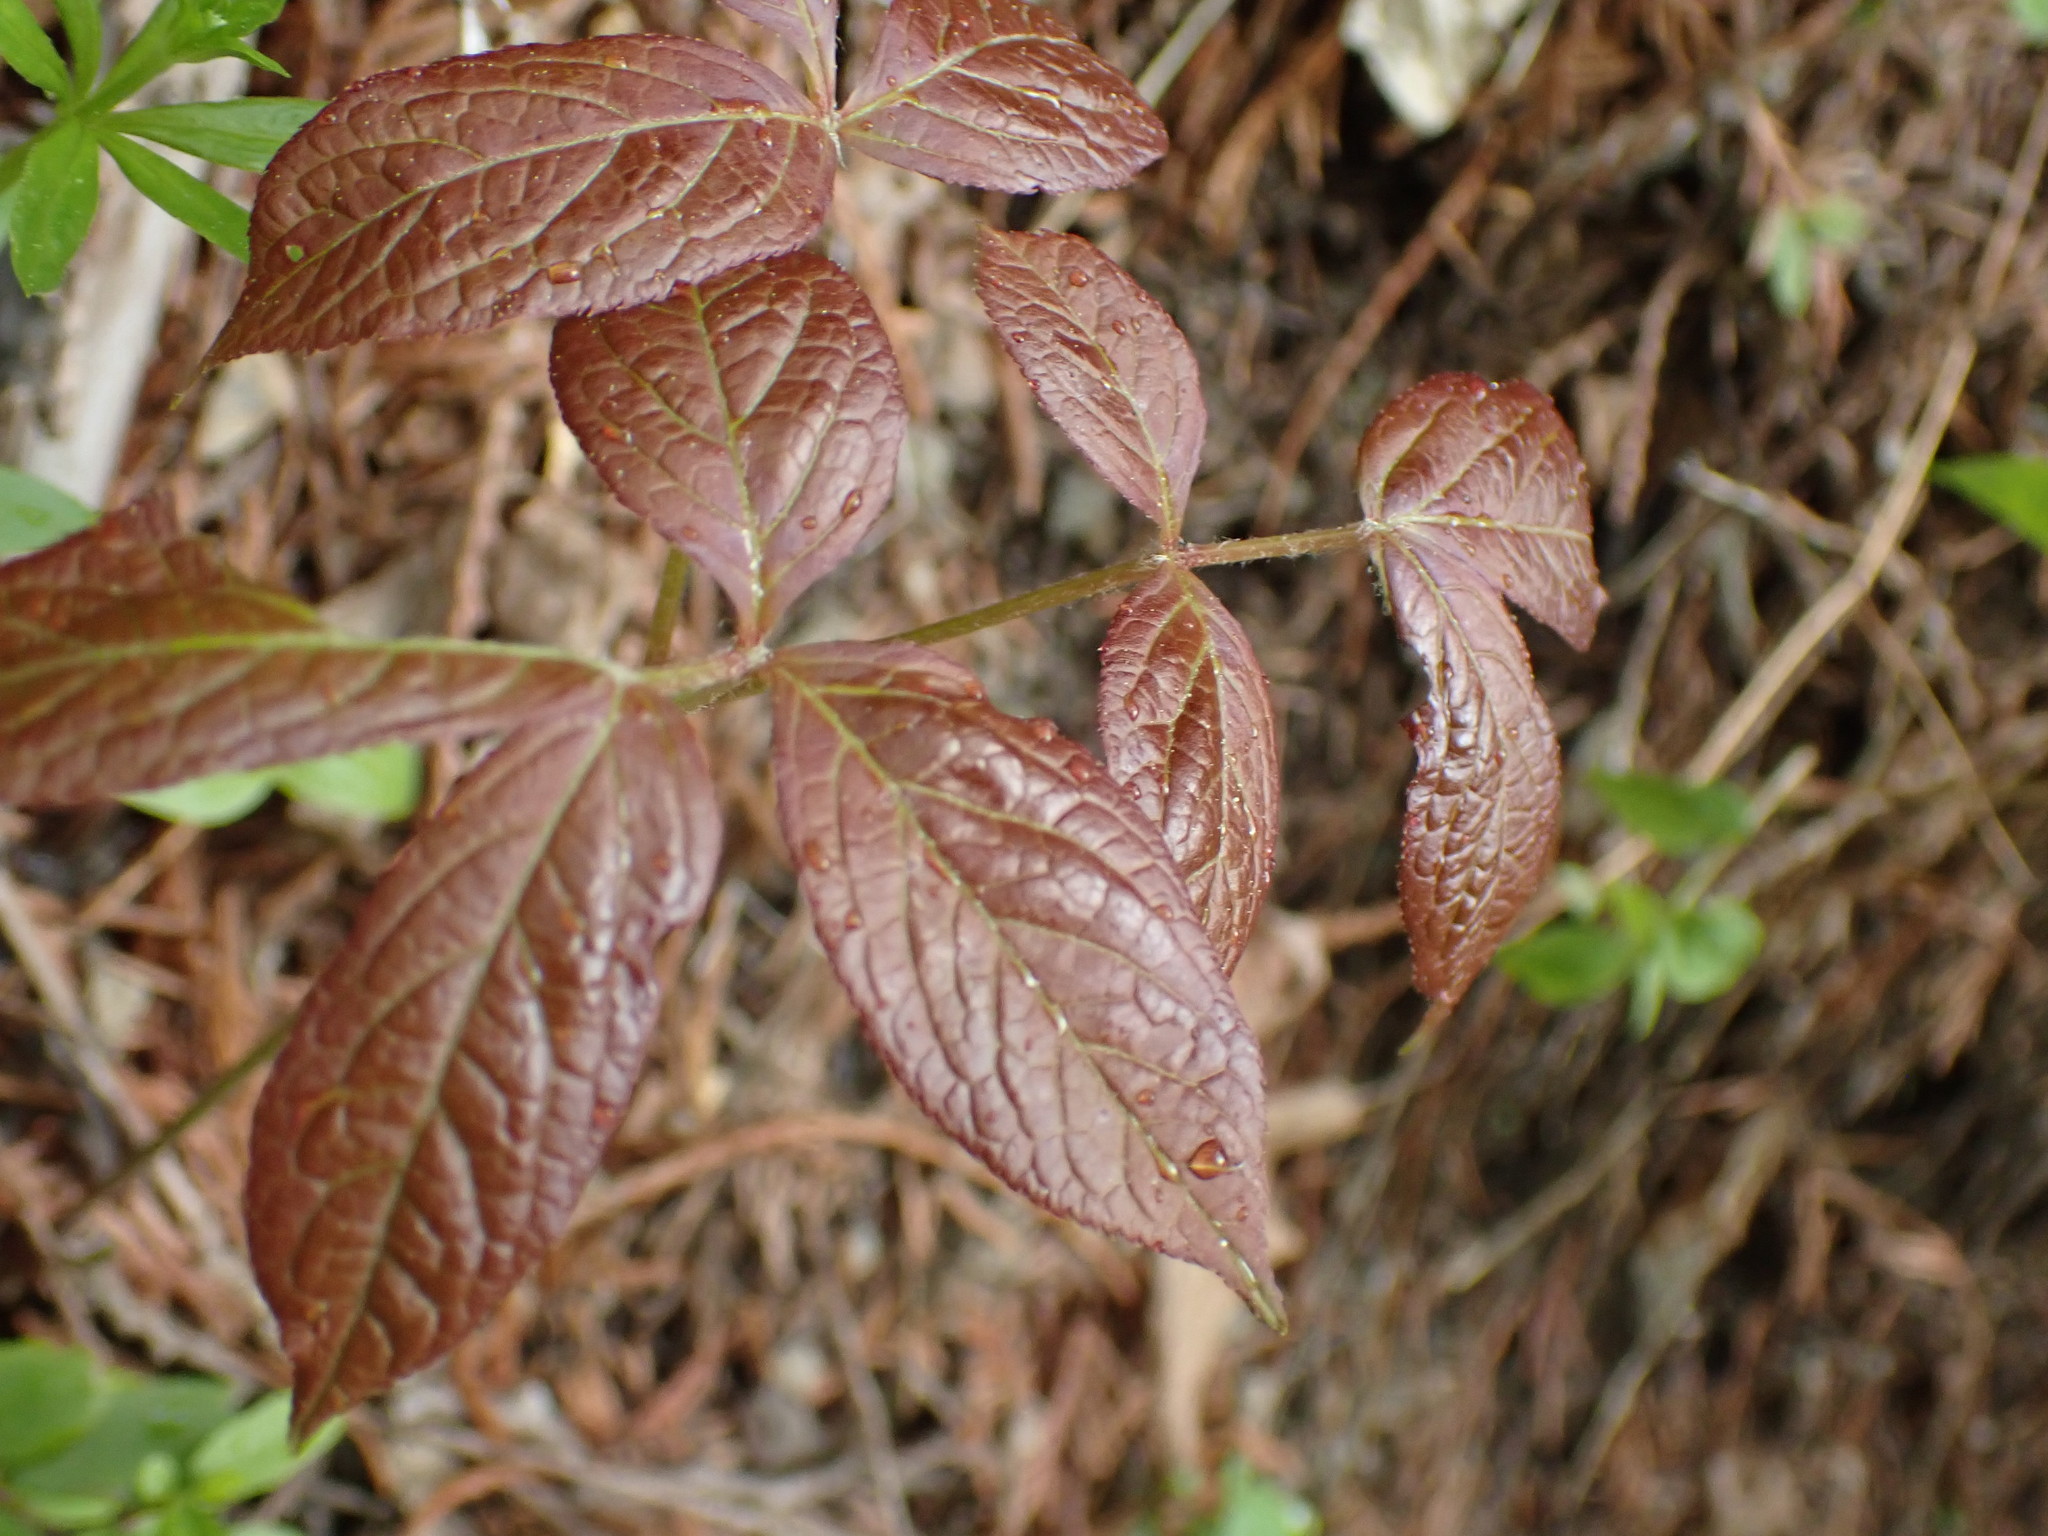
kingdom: Plantae
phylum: Tracheophyta
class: Magnoliopsida
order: Apiales
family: Araliaceae
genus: Aralia
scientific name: Aralia nudicaulis
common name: Wild sarsaparilla
